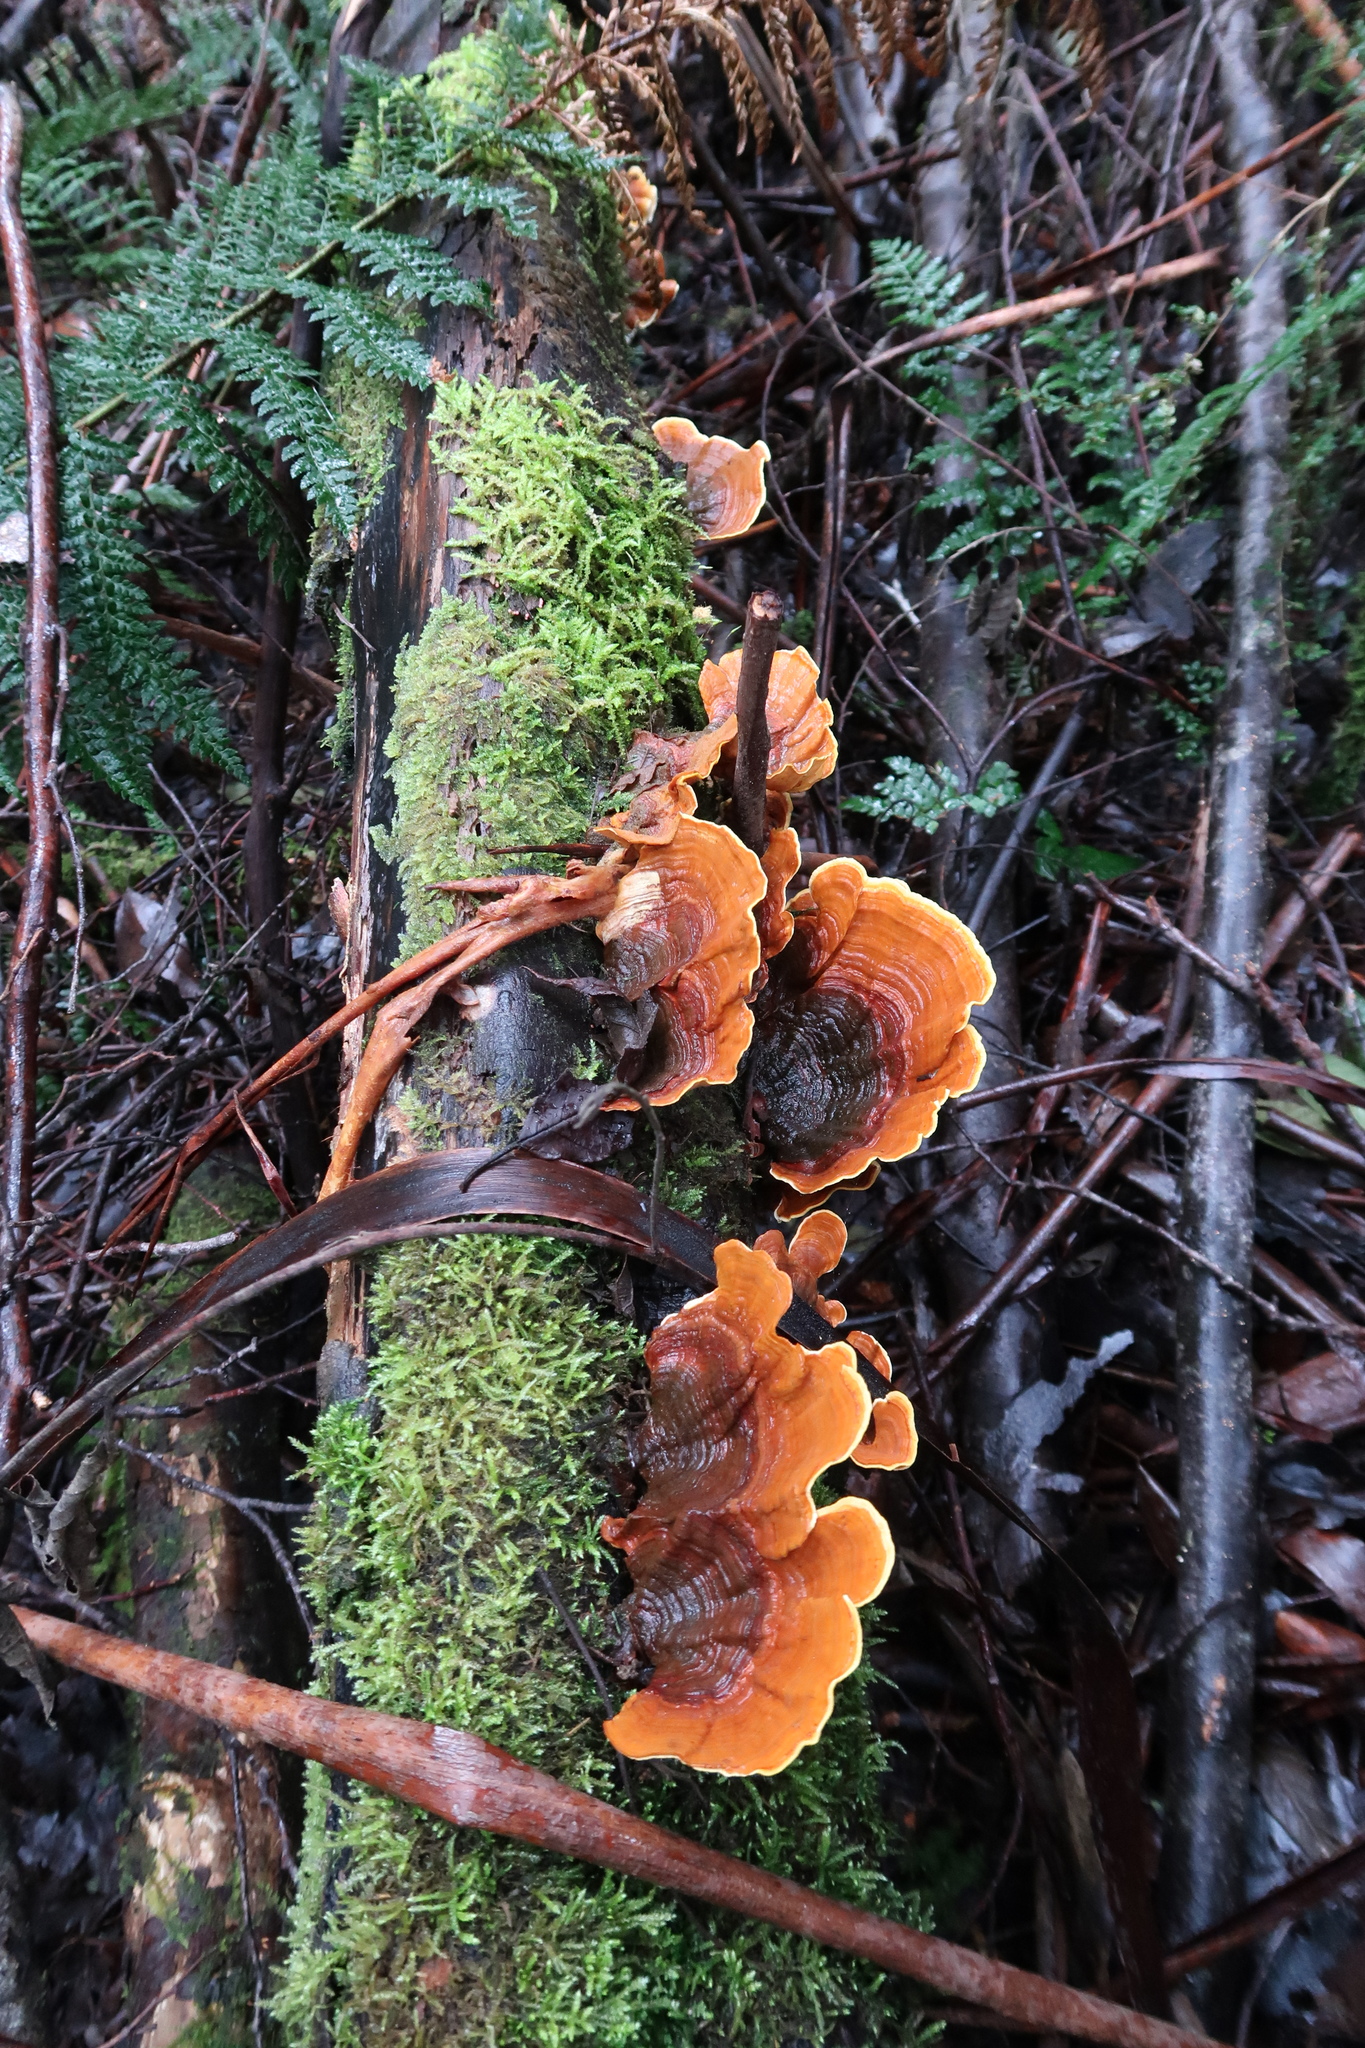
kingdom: Fungi
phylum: Basidiomycota
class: Agaricomycetes
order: Russulales
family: Stereaceae
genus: Stereum
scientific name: Stereum versicolor
